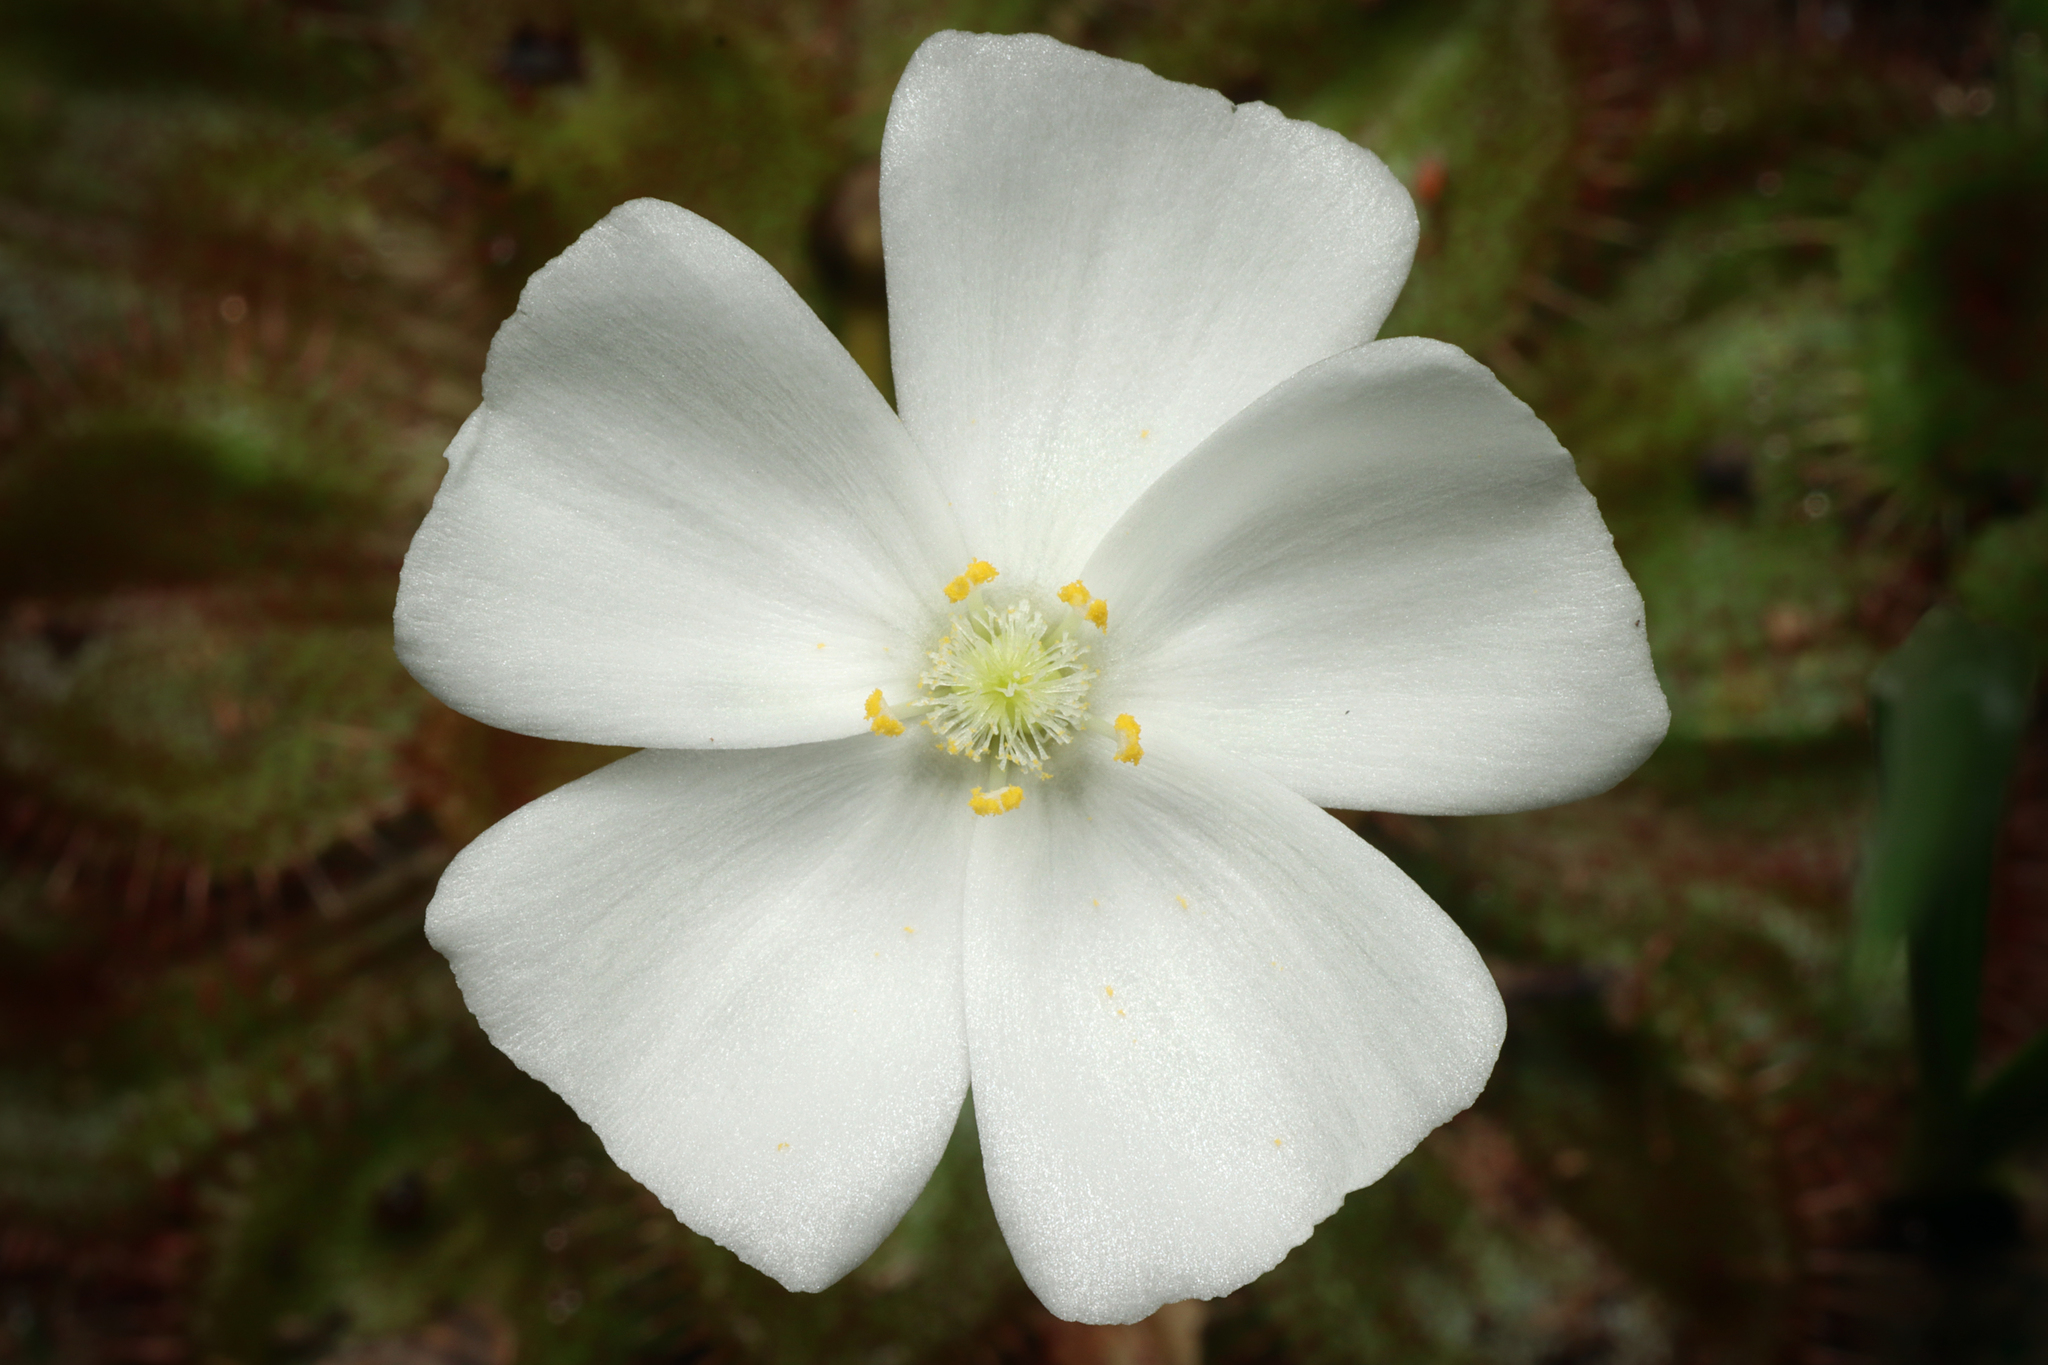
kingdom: Plantae
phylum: Tracheophyta
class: Magnoliopsida
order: Caryophyllales
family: Droseraceae
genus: Drosera
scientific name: Drosera whittakeri
